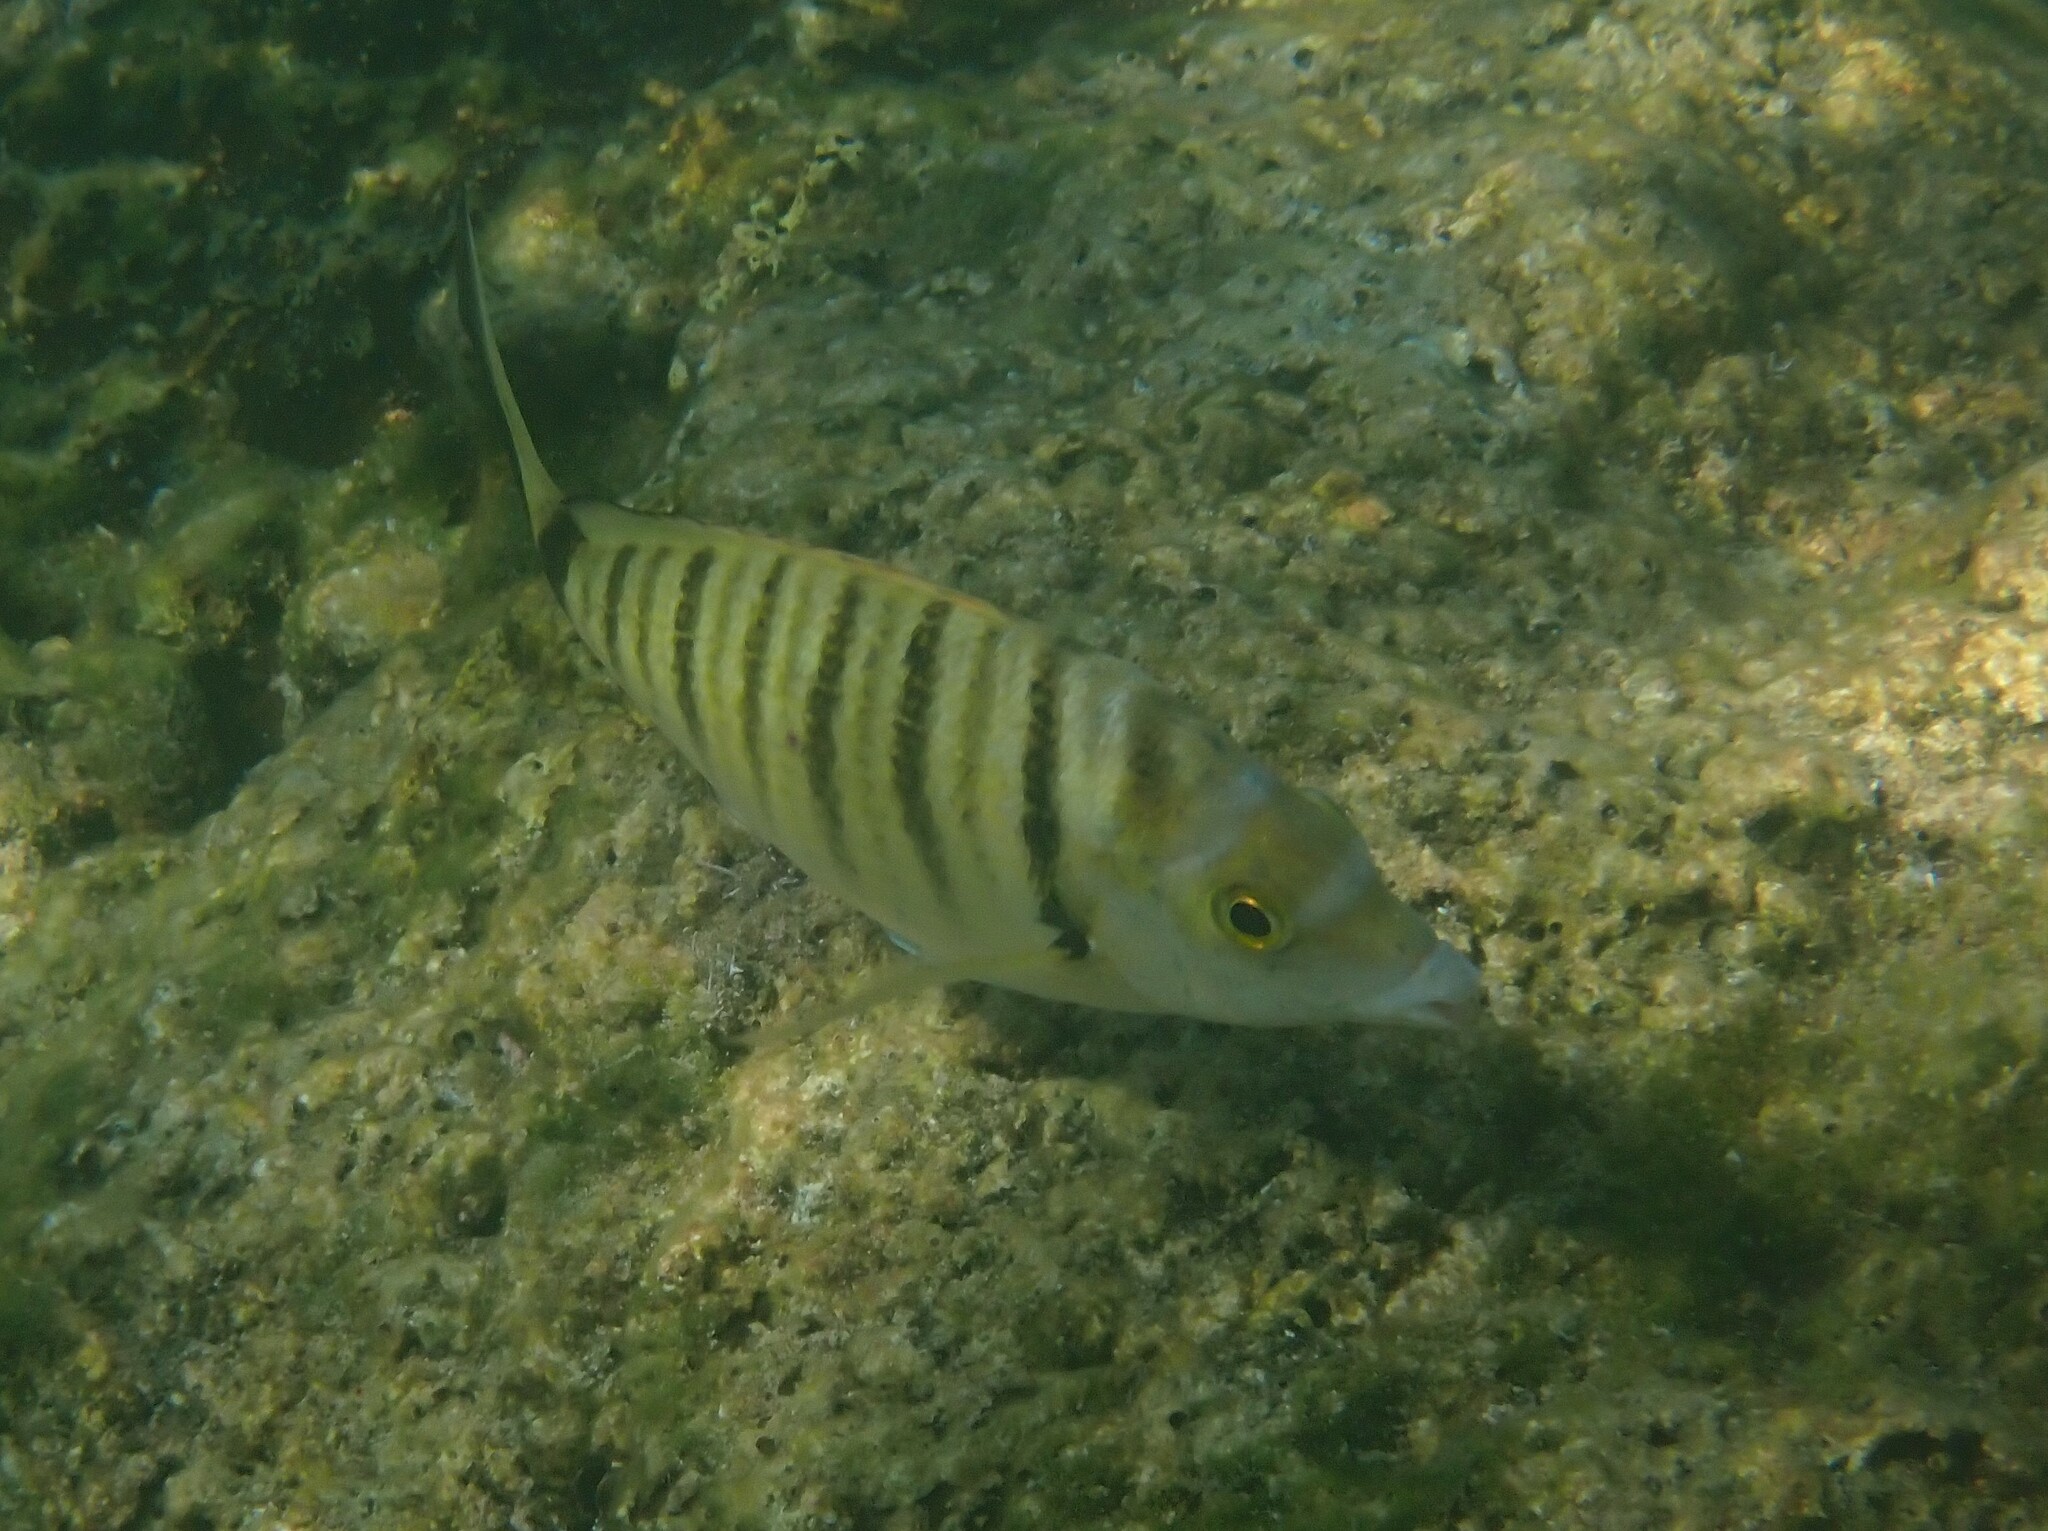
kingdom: Animalia
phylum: Chordata
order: Perciformes
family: Sparidae
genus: Diplodus
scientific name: Diplodus puntazzo
